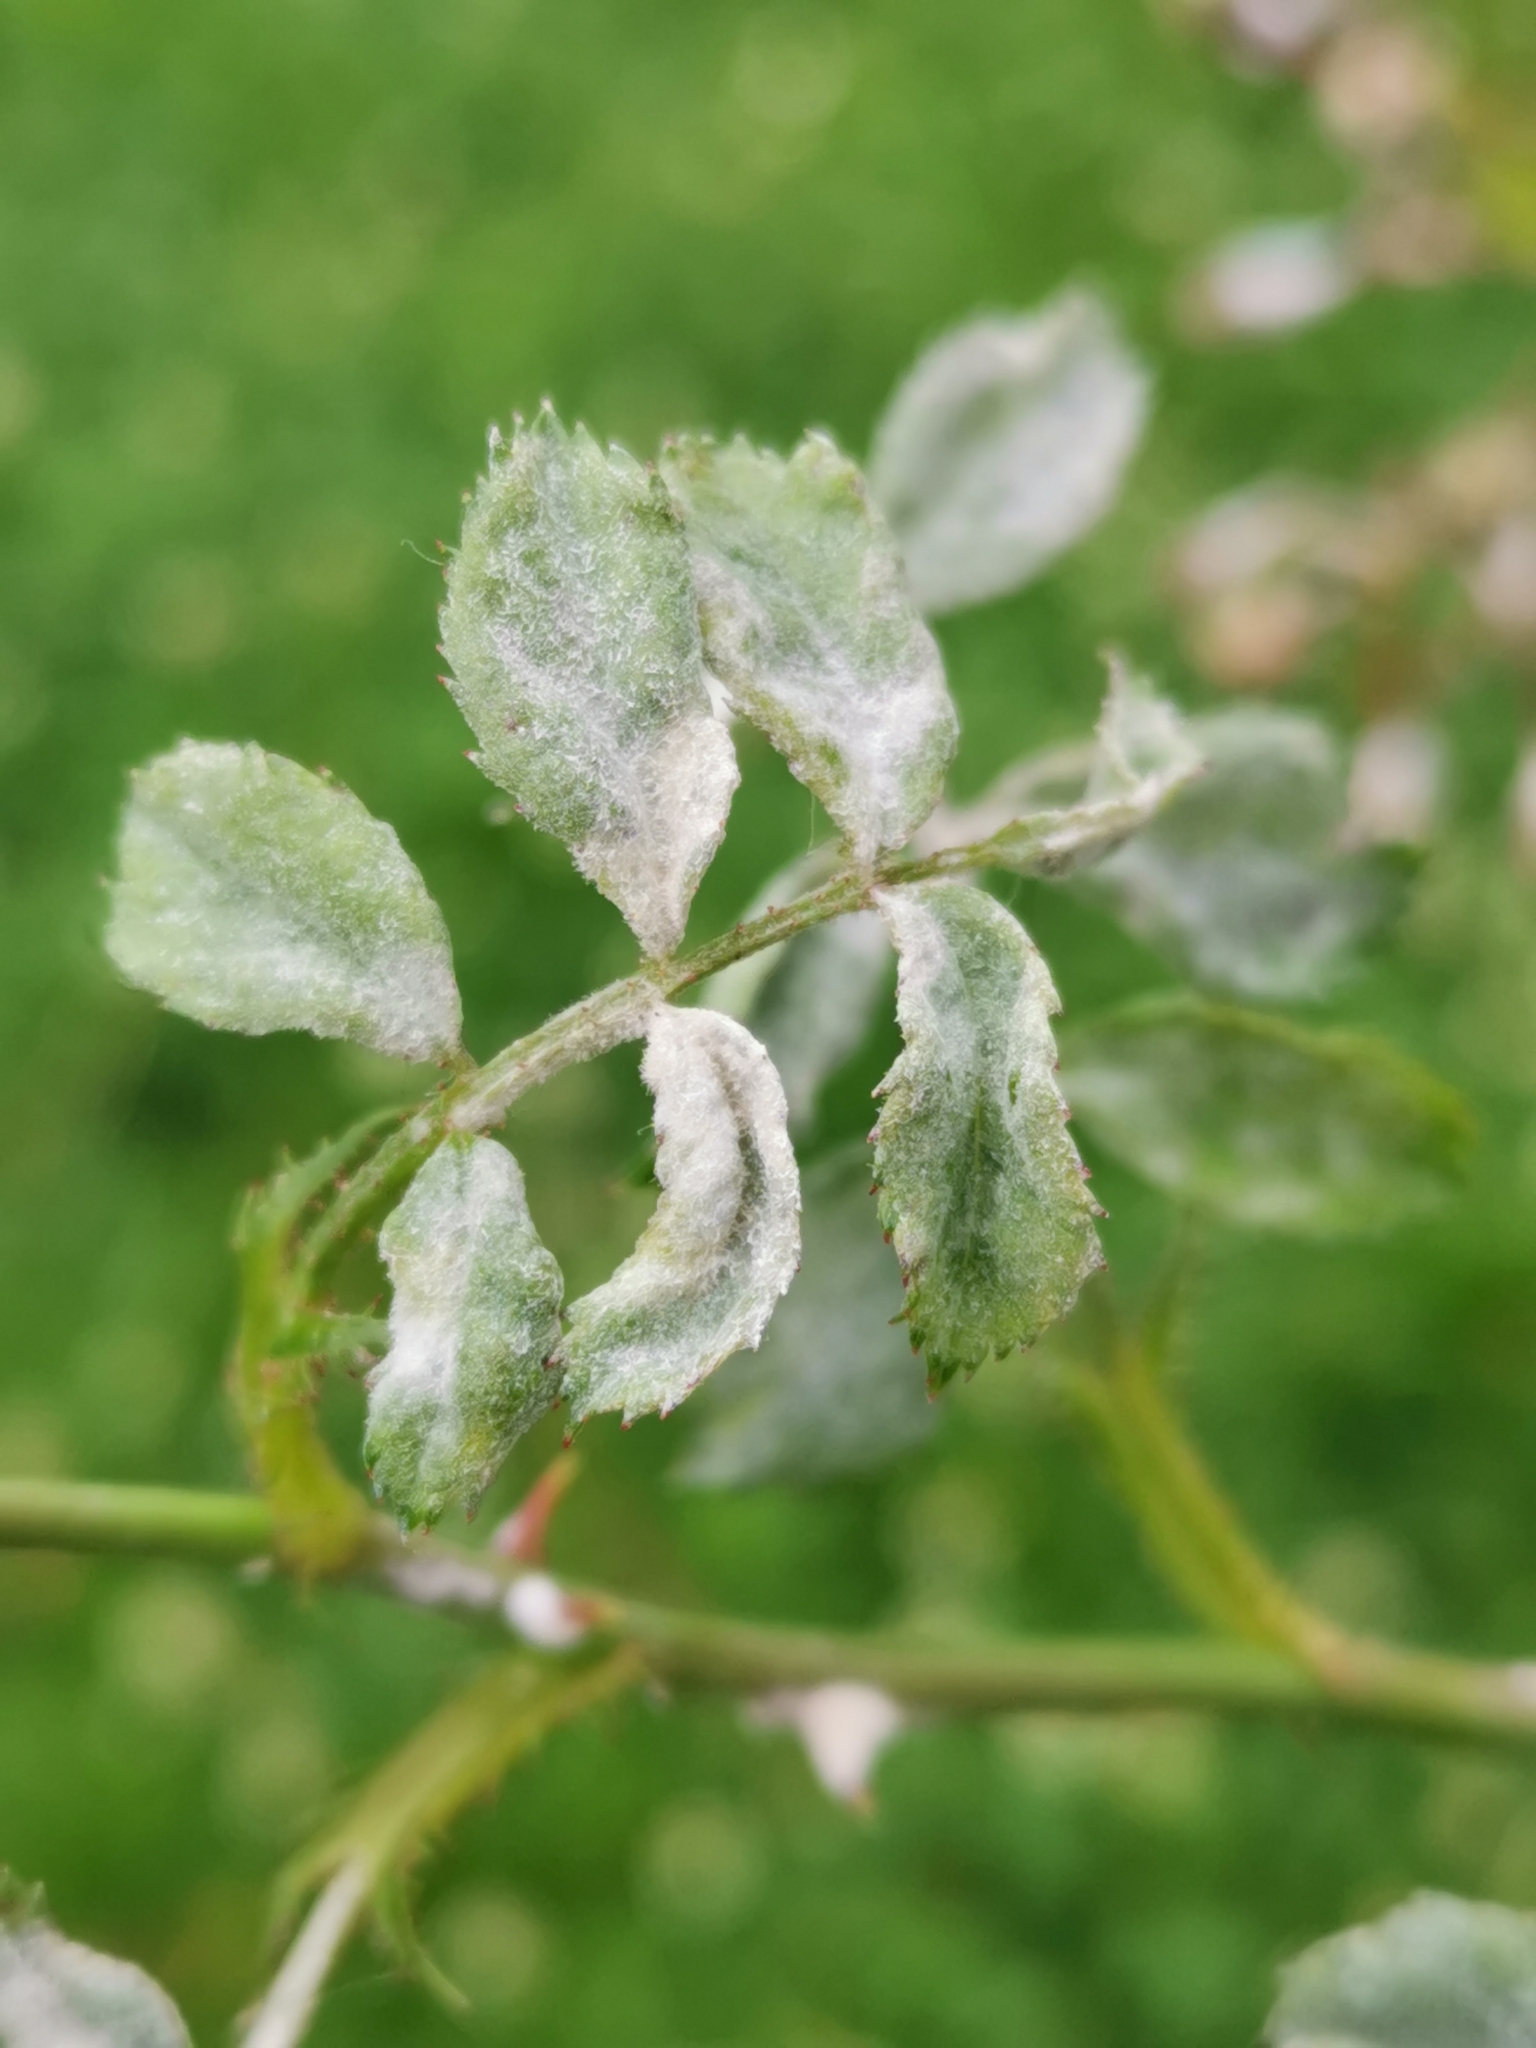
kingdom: Fungi
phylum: Ascomycota
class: Leotiomycetes
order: Helotiales
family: Erysiphaceae
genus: Podosphaera
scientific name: Podosphaera pannosa
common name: Rose mildew
